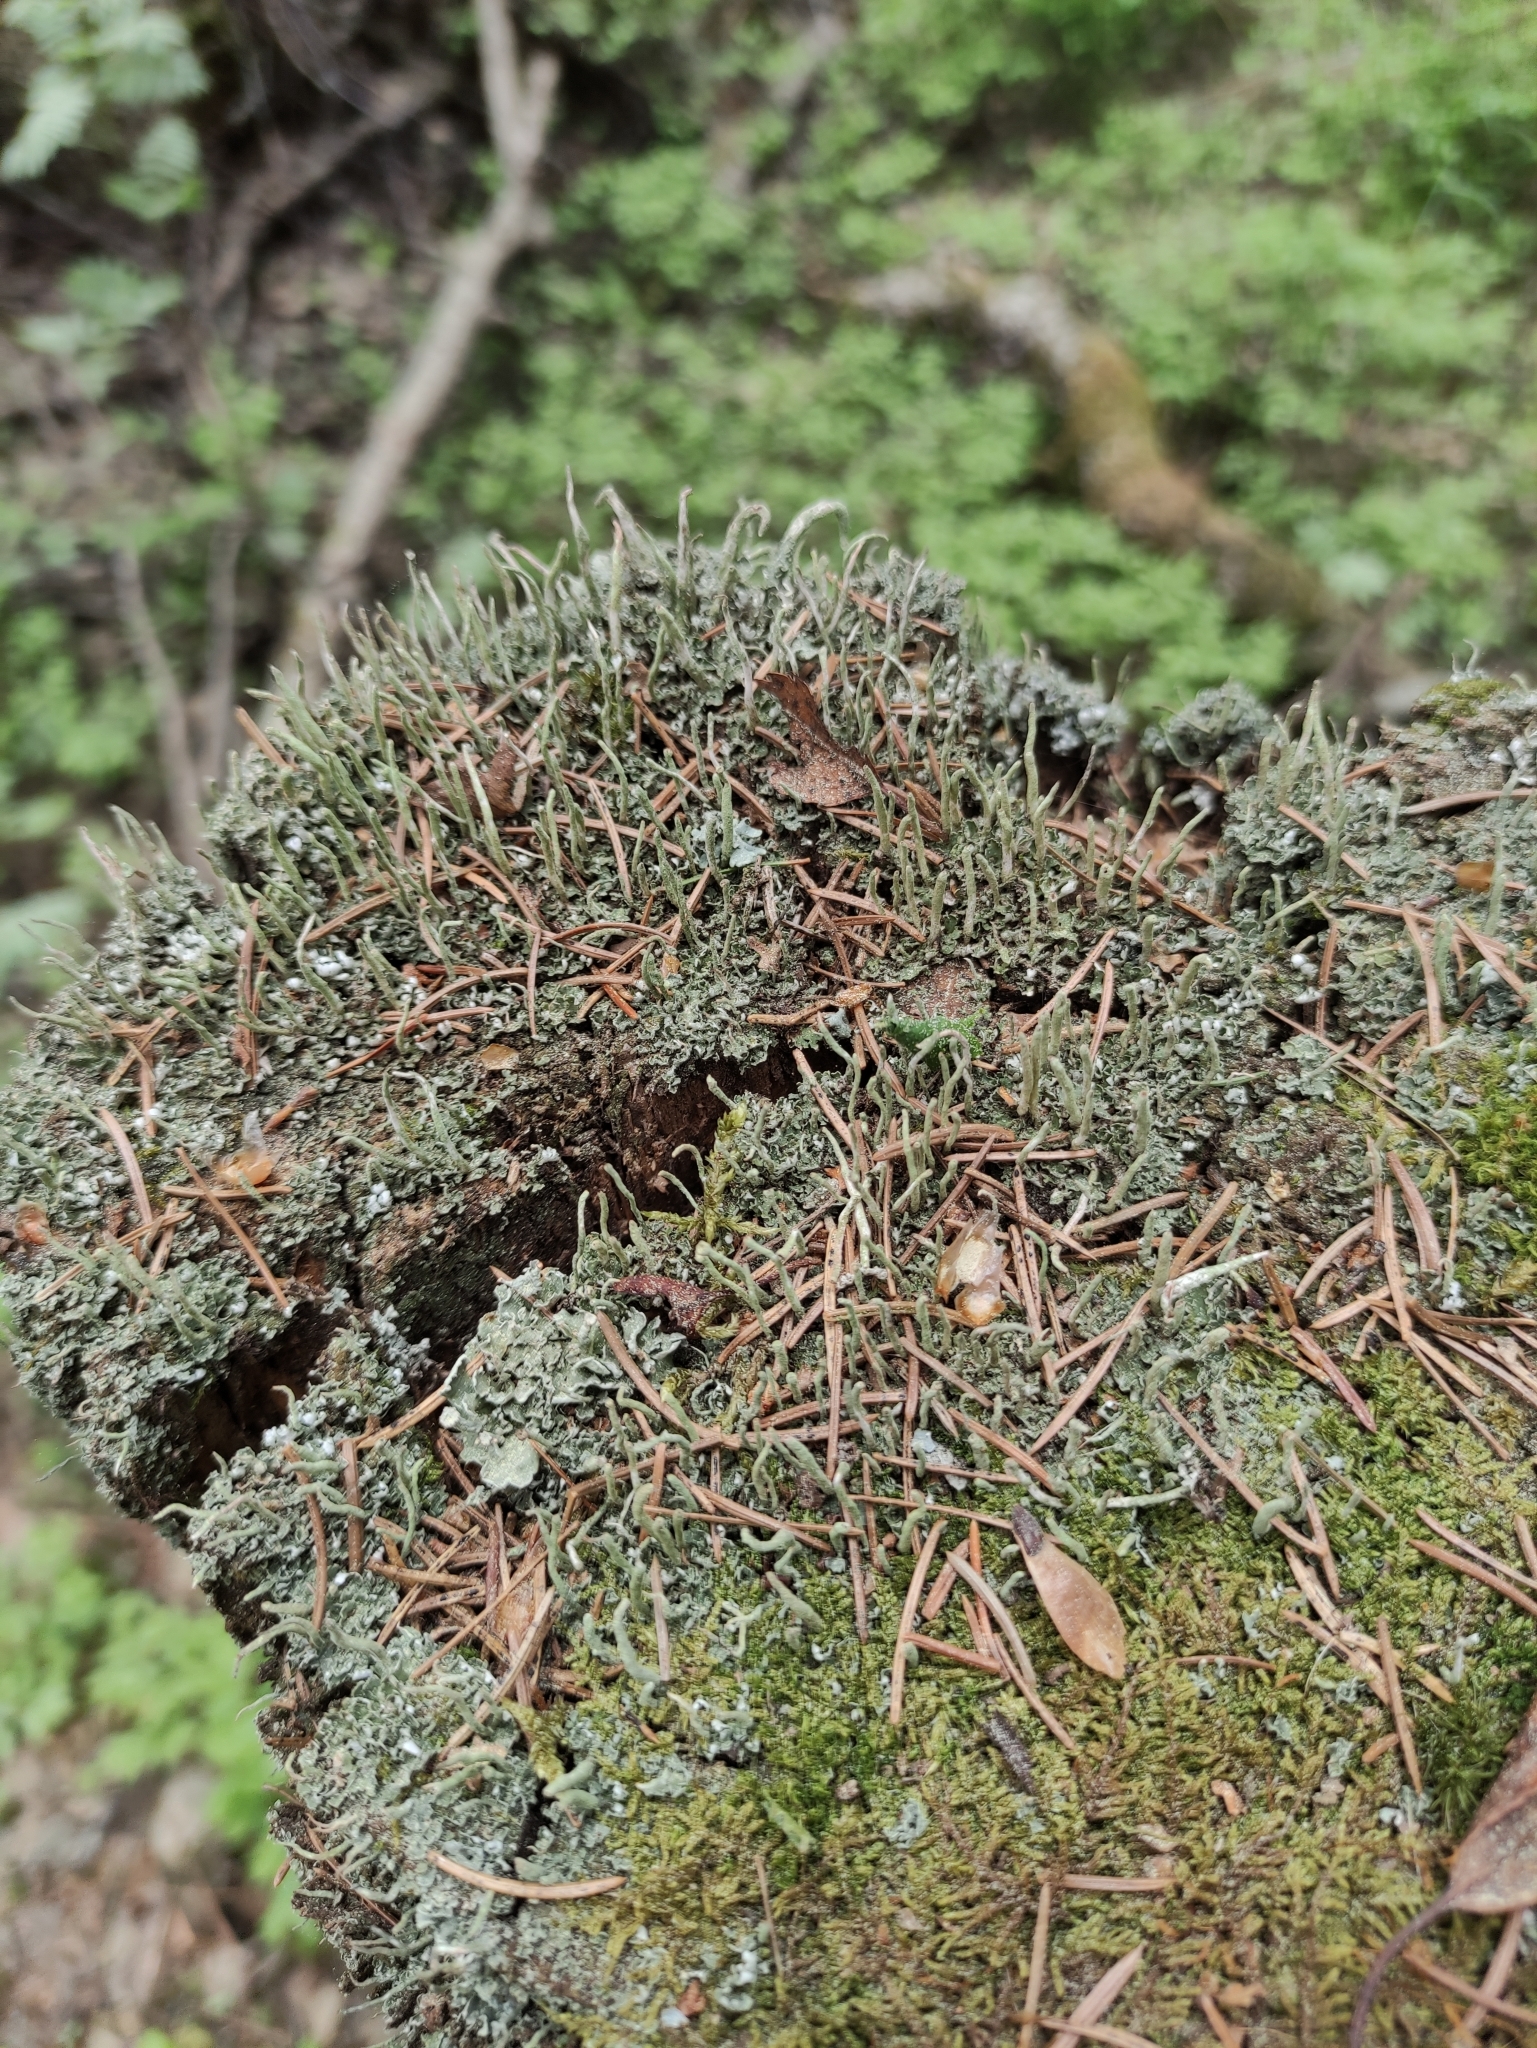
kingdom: Fungi
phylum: Ascomycota
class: Lecanoromycetes
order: Lecanorales
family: Cladoniaceae
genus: Cladonia
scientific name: Cladonia coniocraea
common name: Common powderhorn
